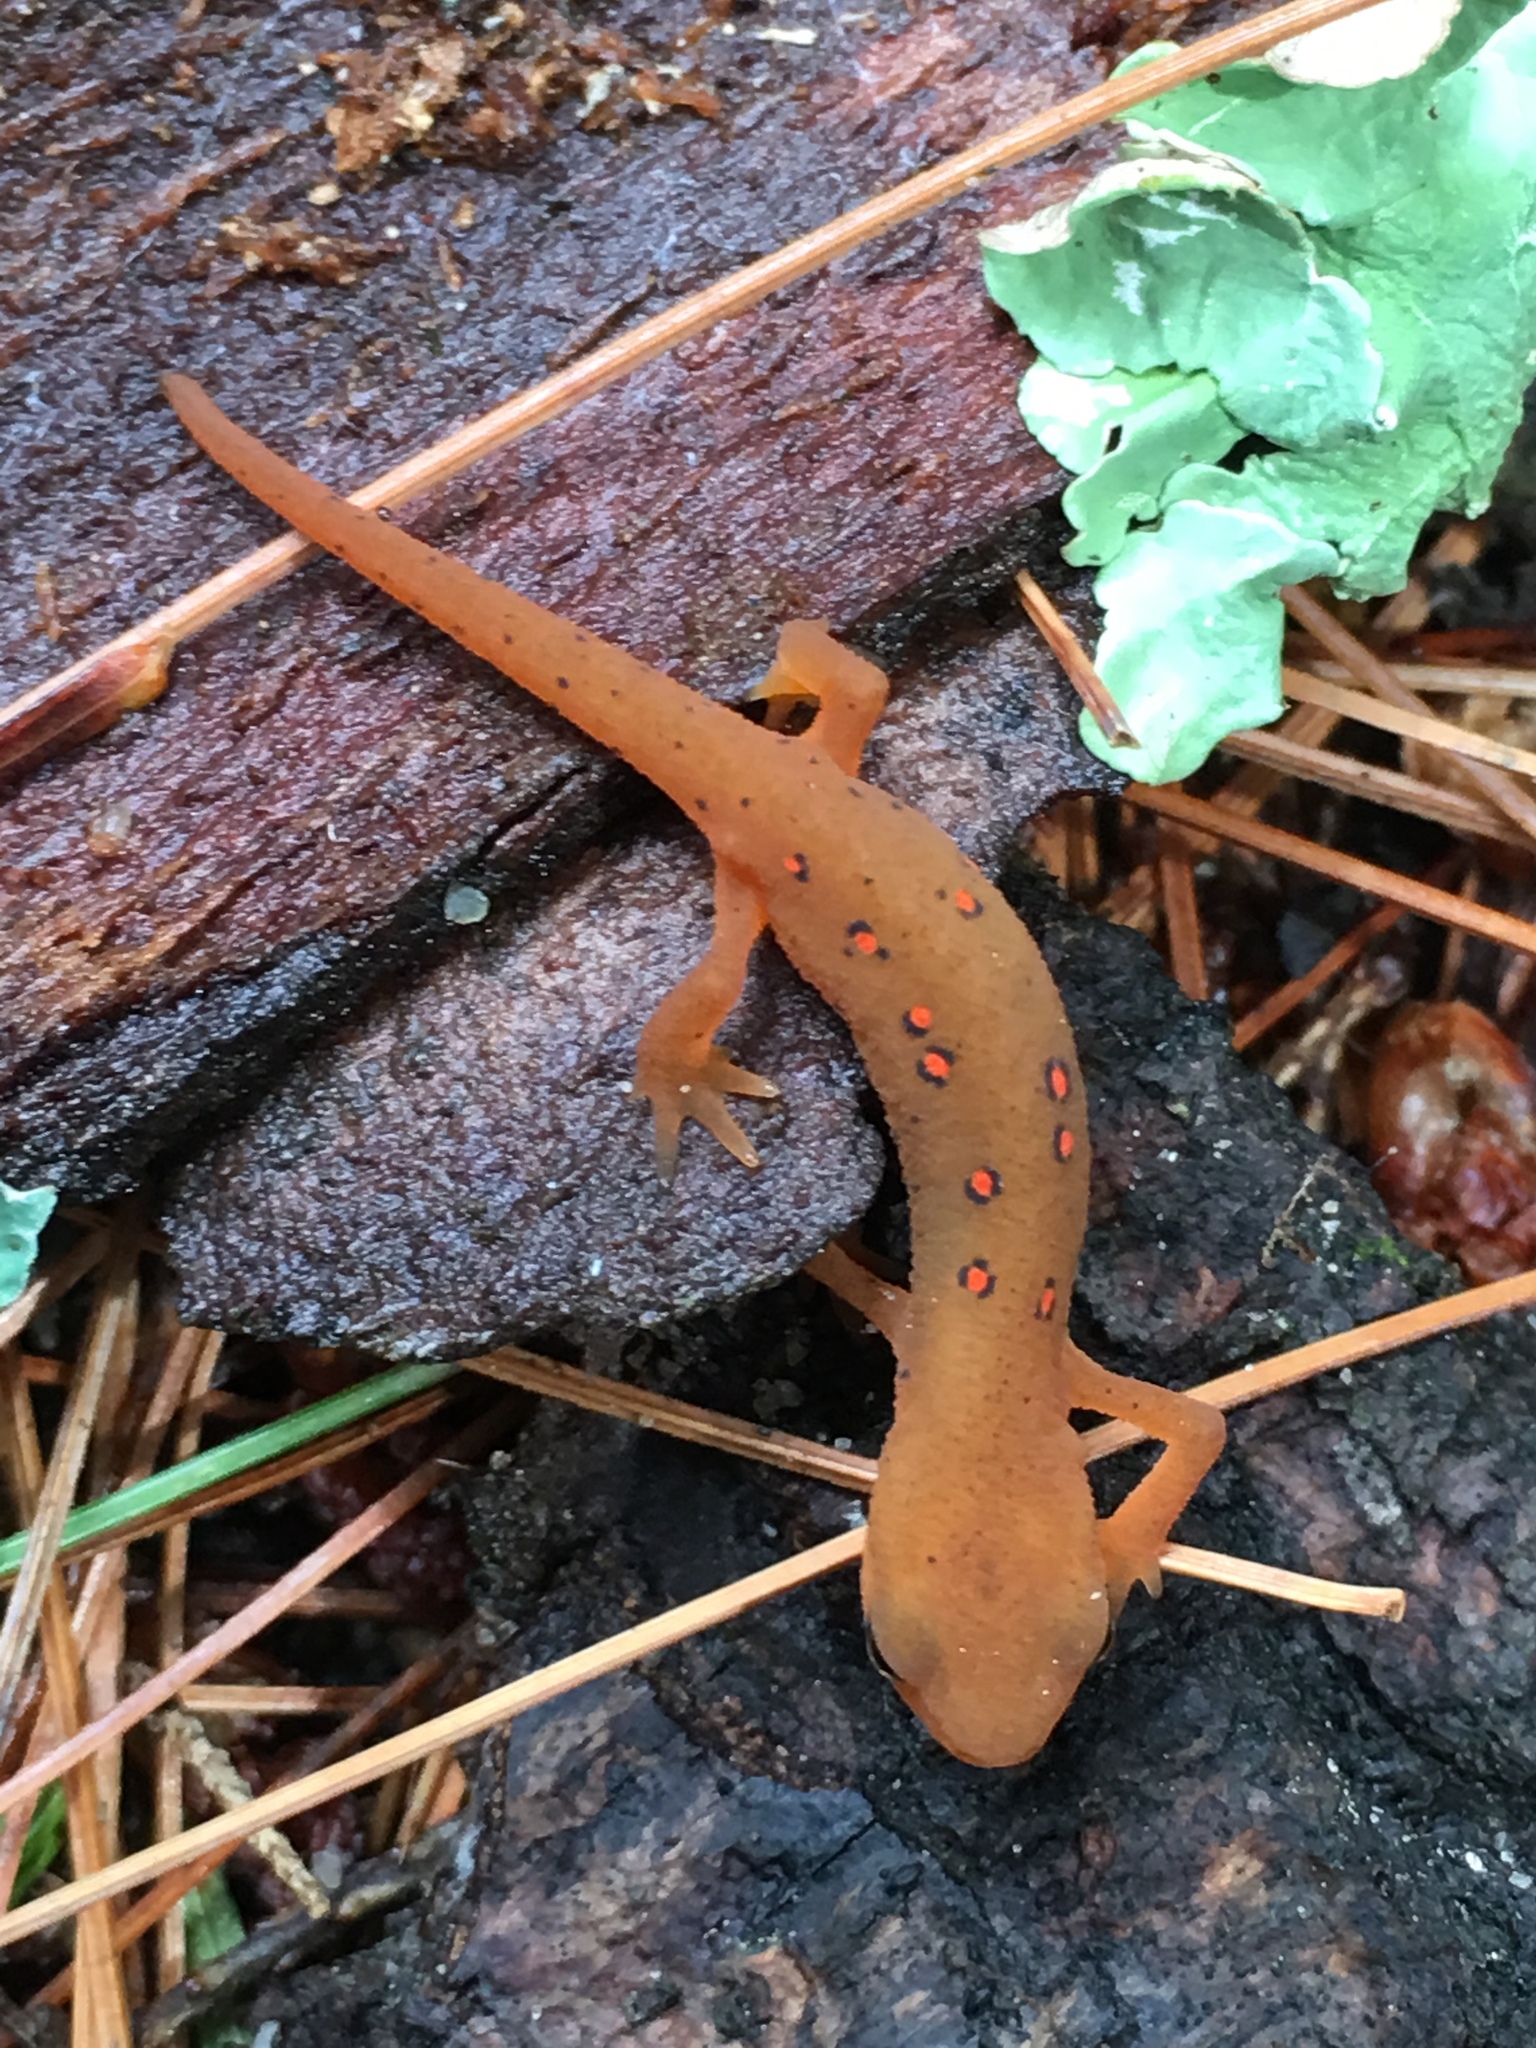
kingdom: Animalia
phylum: Chordata
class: Amphibia
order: Caudata
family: Salamandridae
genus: Notophthalmus
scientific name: Notophthalmus viridescens
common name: Eastern newt
